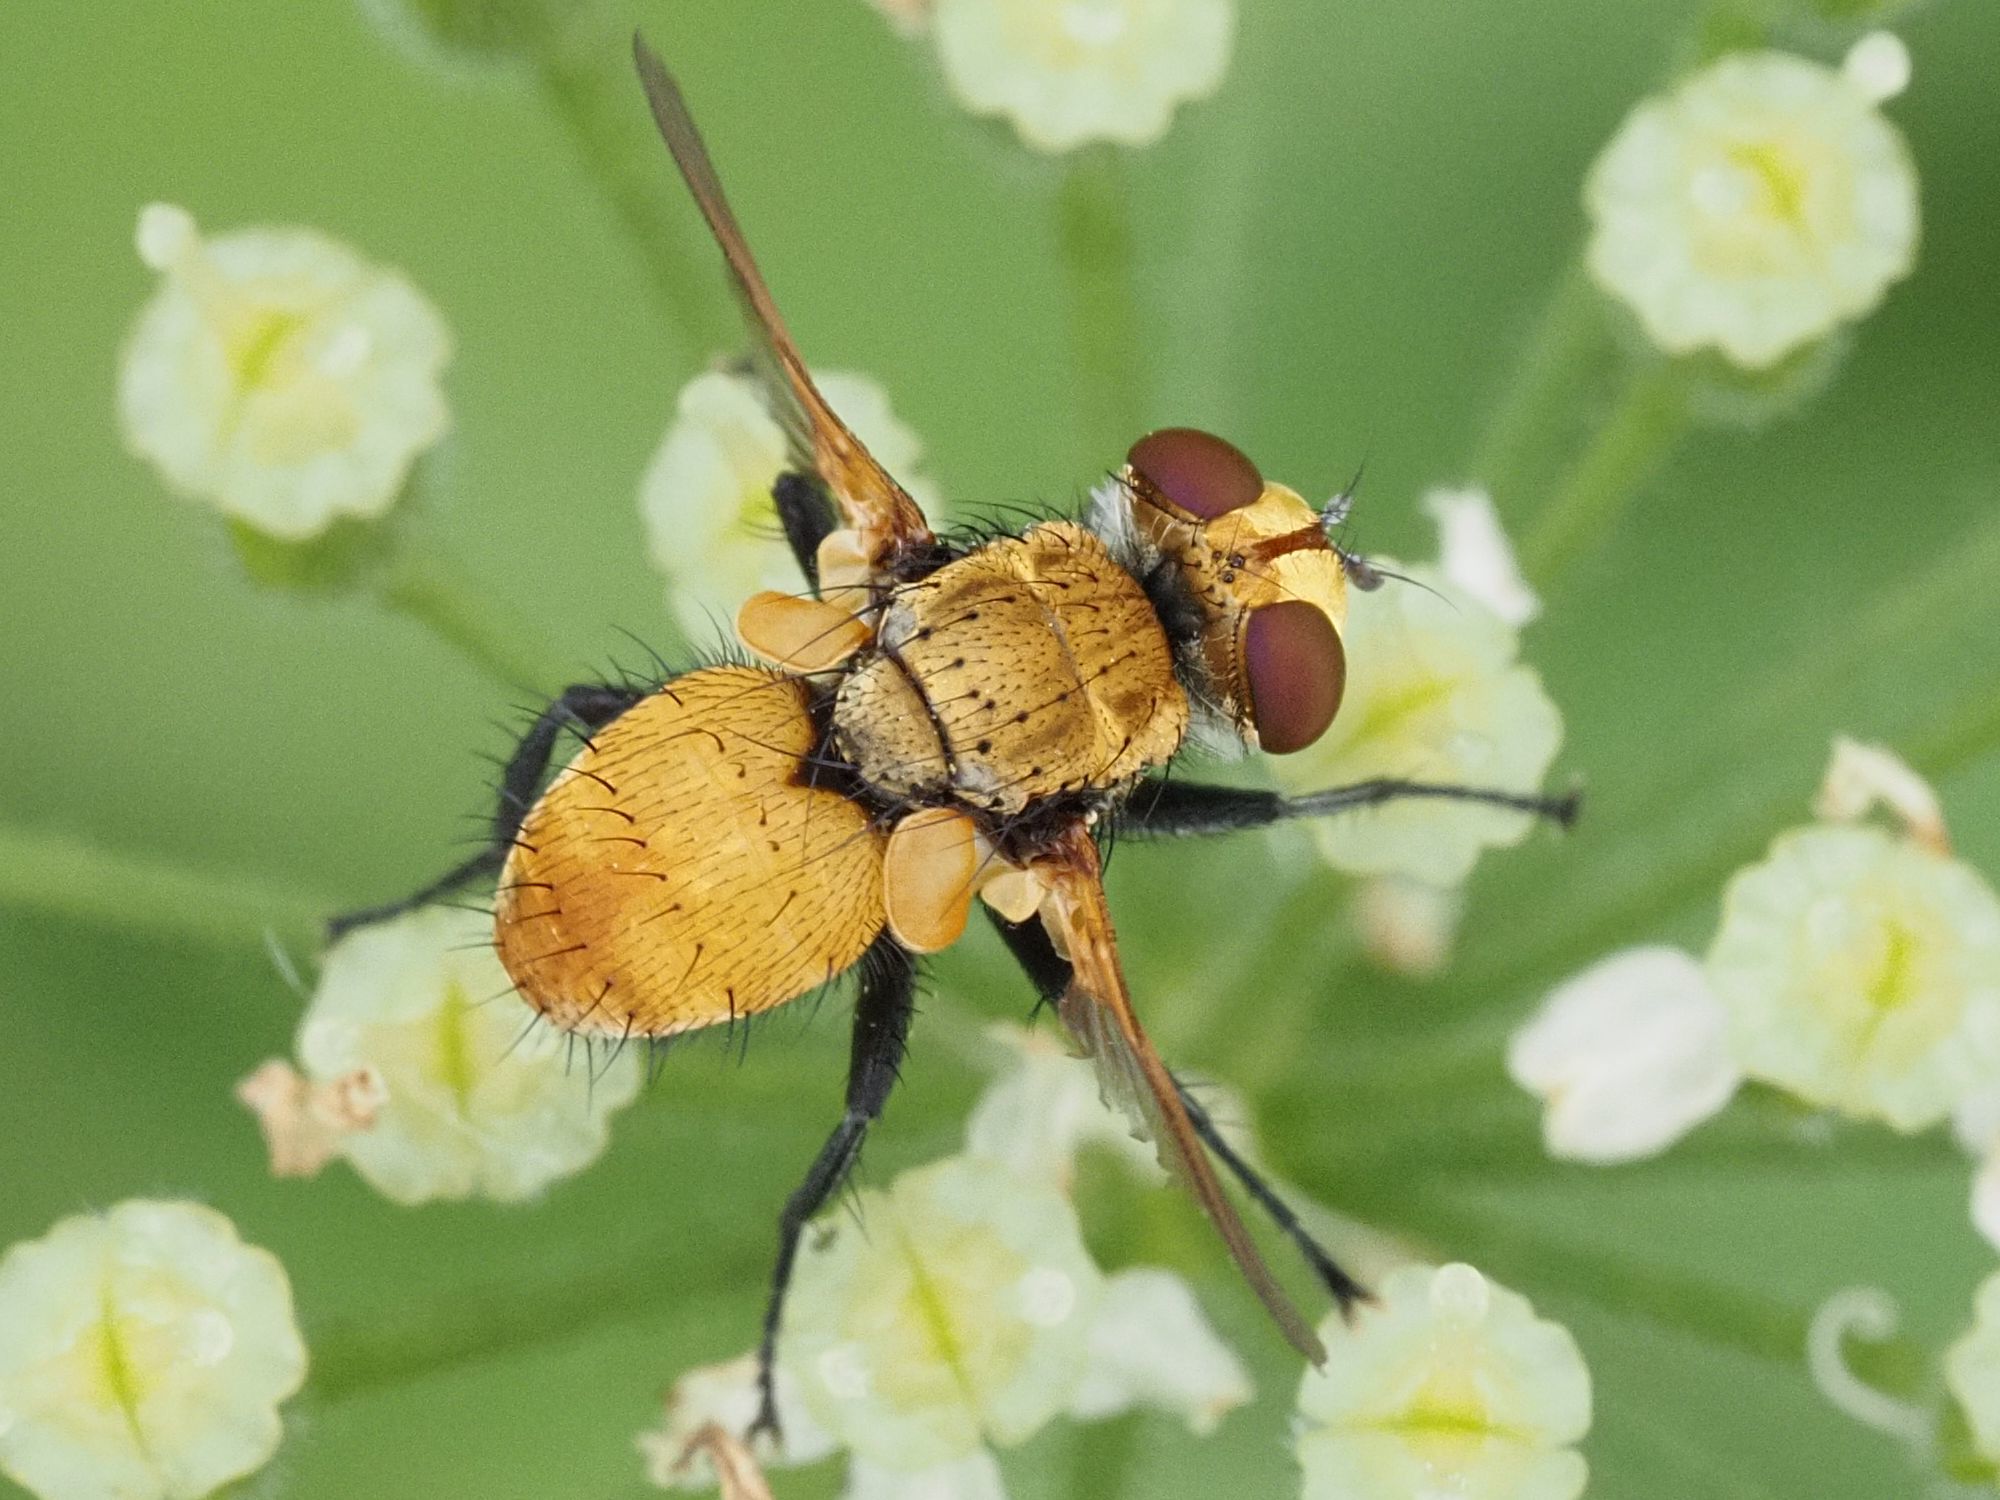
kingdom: Animalia
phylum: Arthropoda
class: Insecta
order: Diptera
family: Tachinidae
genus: Eliozeta
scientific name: Eliozeta helluo
